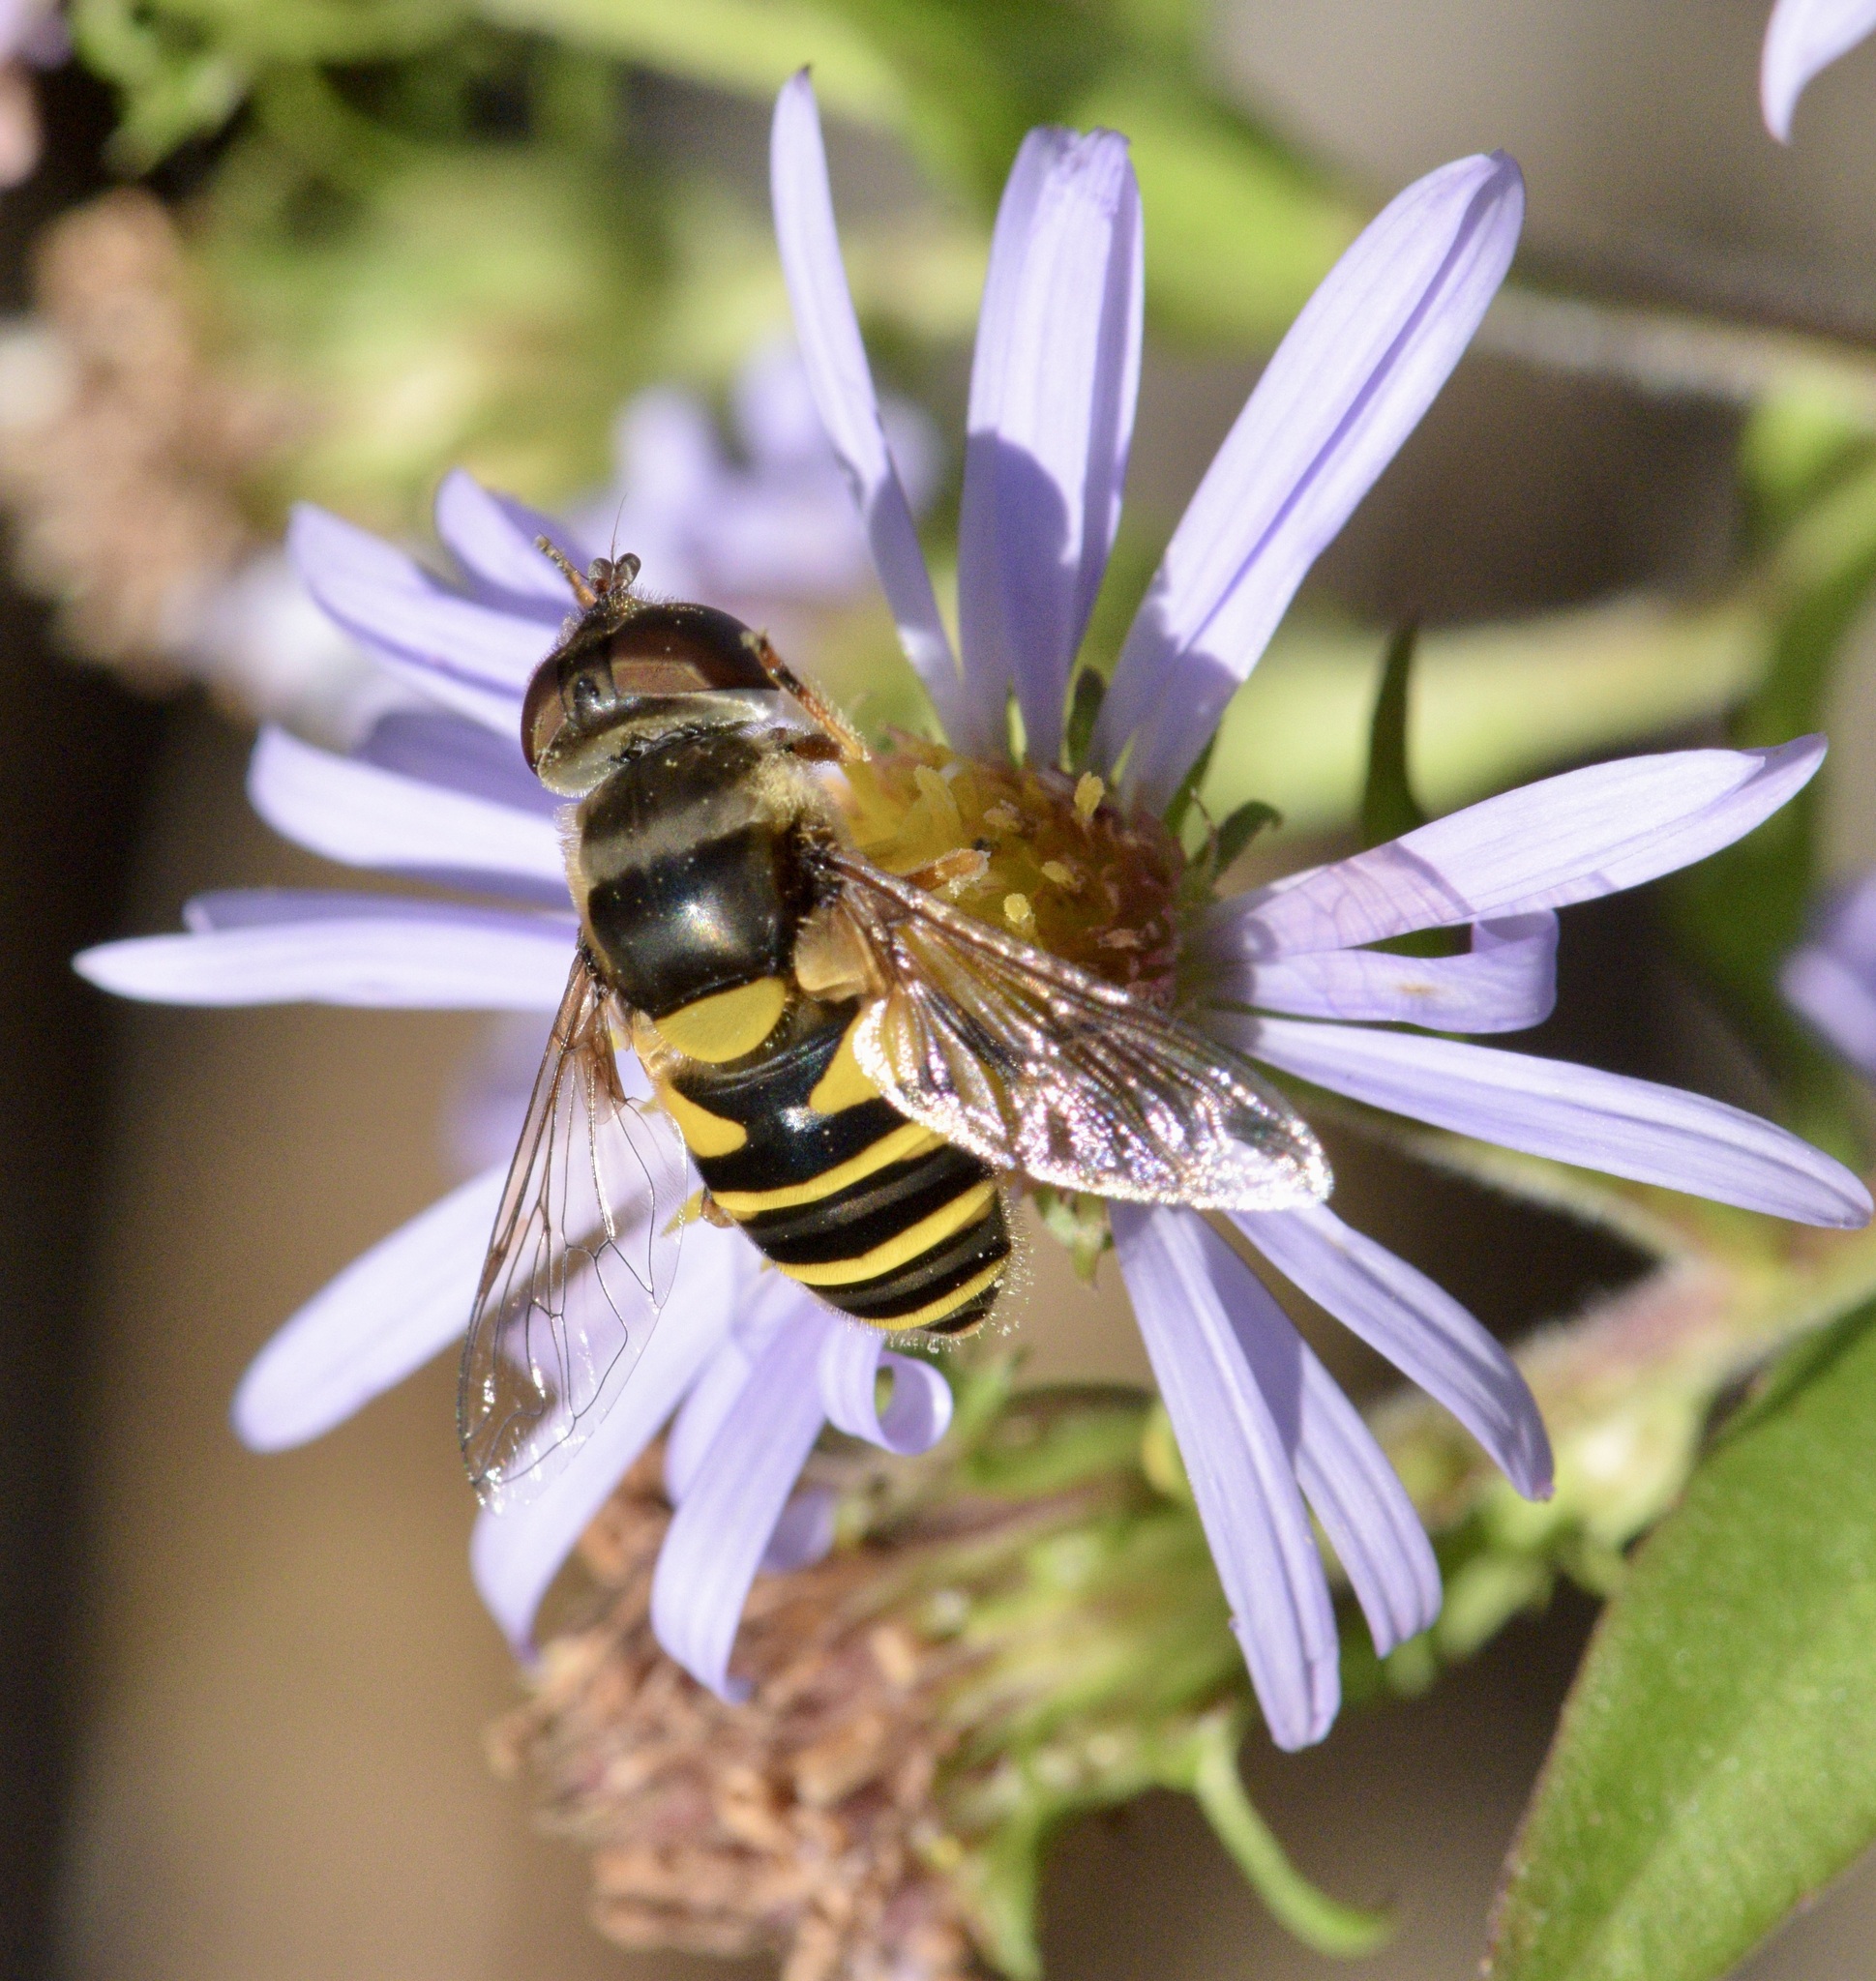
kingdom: Animalia
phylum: Arthropoda
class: Insecta
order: Diptera
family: Syrphidae
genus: Eristalis
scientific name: Eristalis transversa
